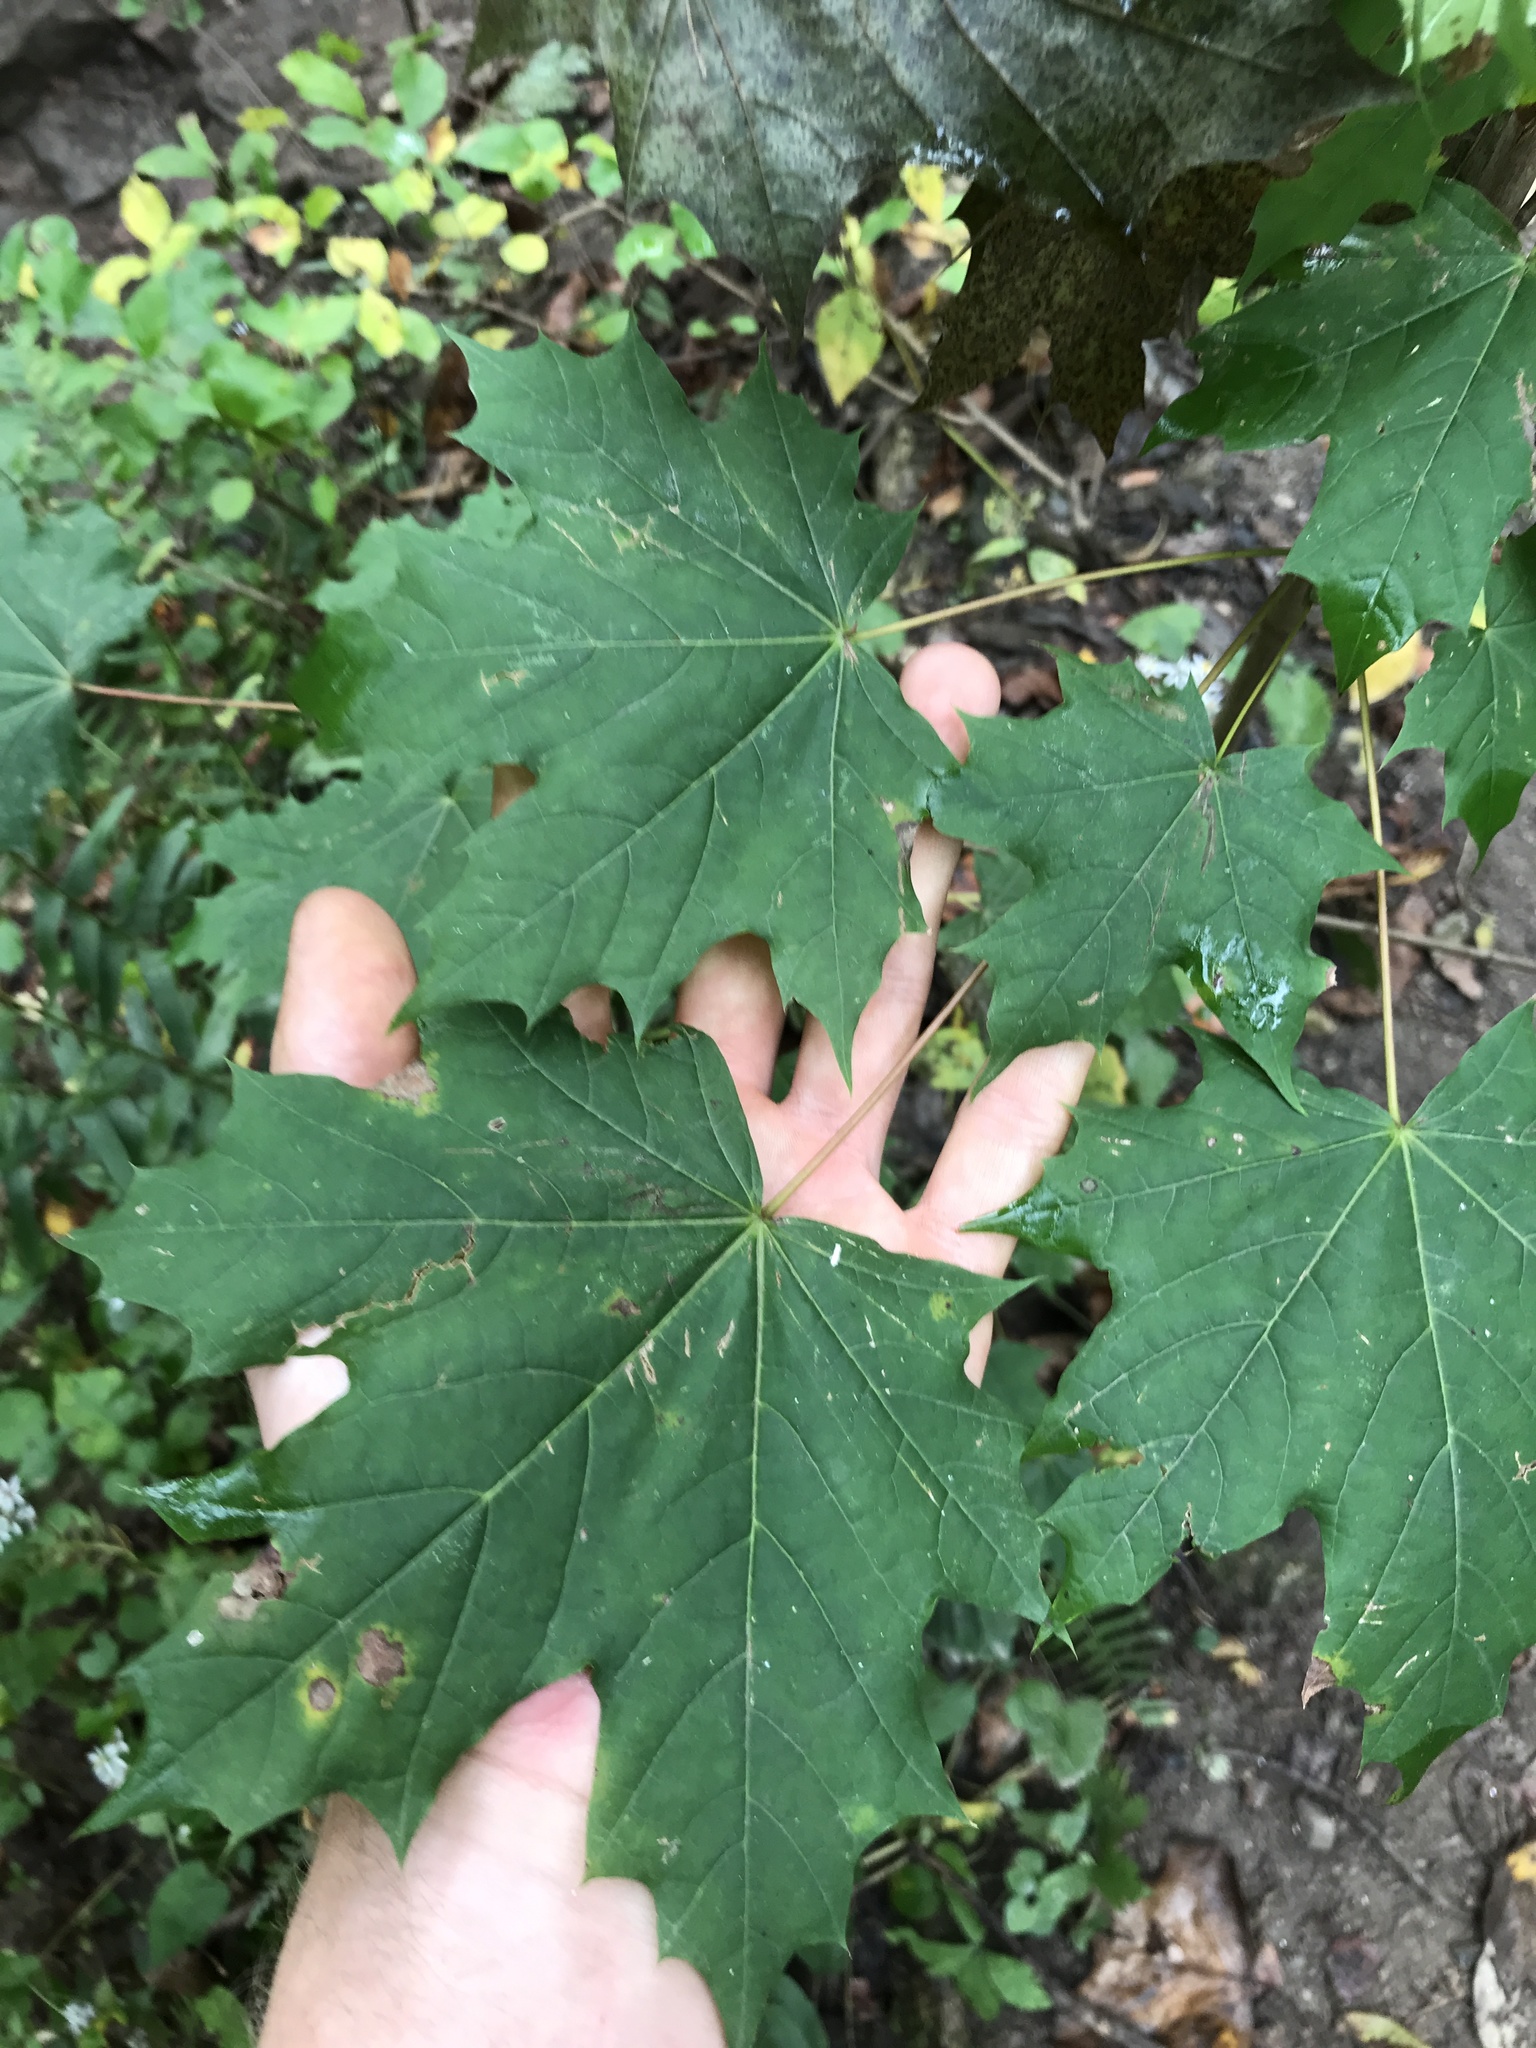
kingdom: Plantae
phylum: Tracheophyta
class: Magnoliopsida
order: Sapindales
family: Sapindaceae
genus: Acer
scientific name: Acer platanoides
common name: Norway maple
